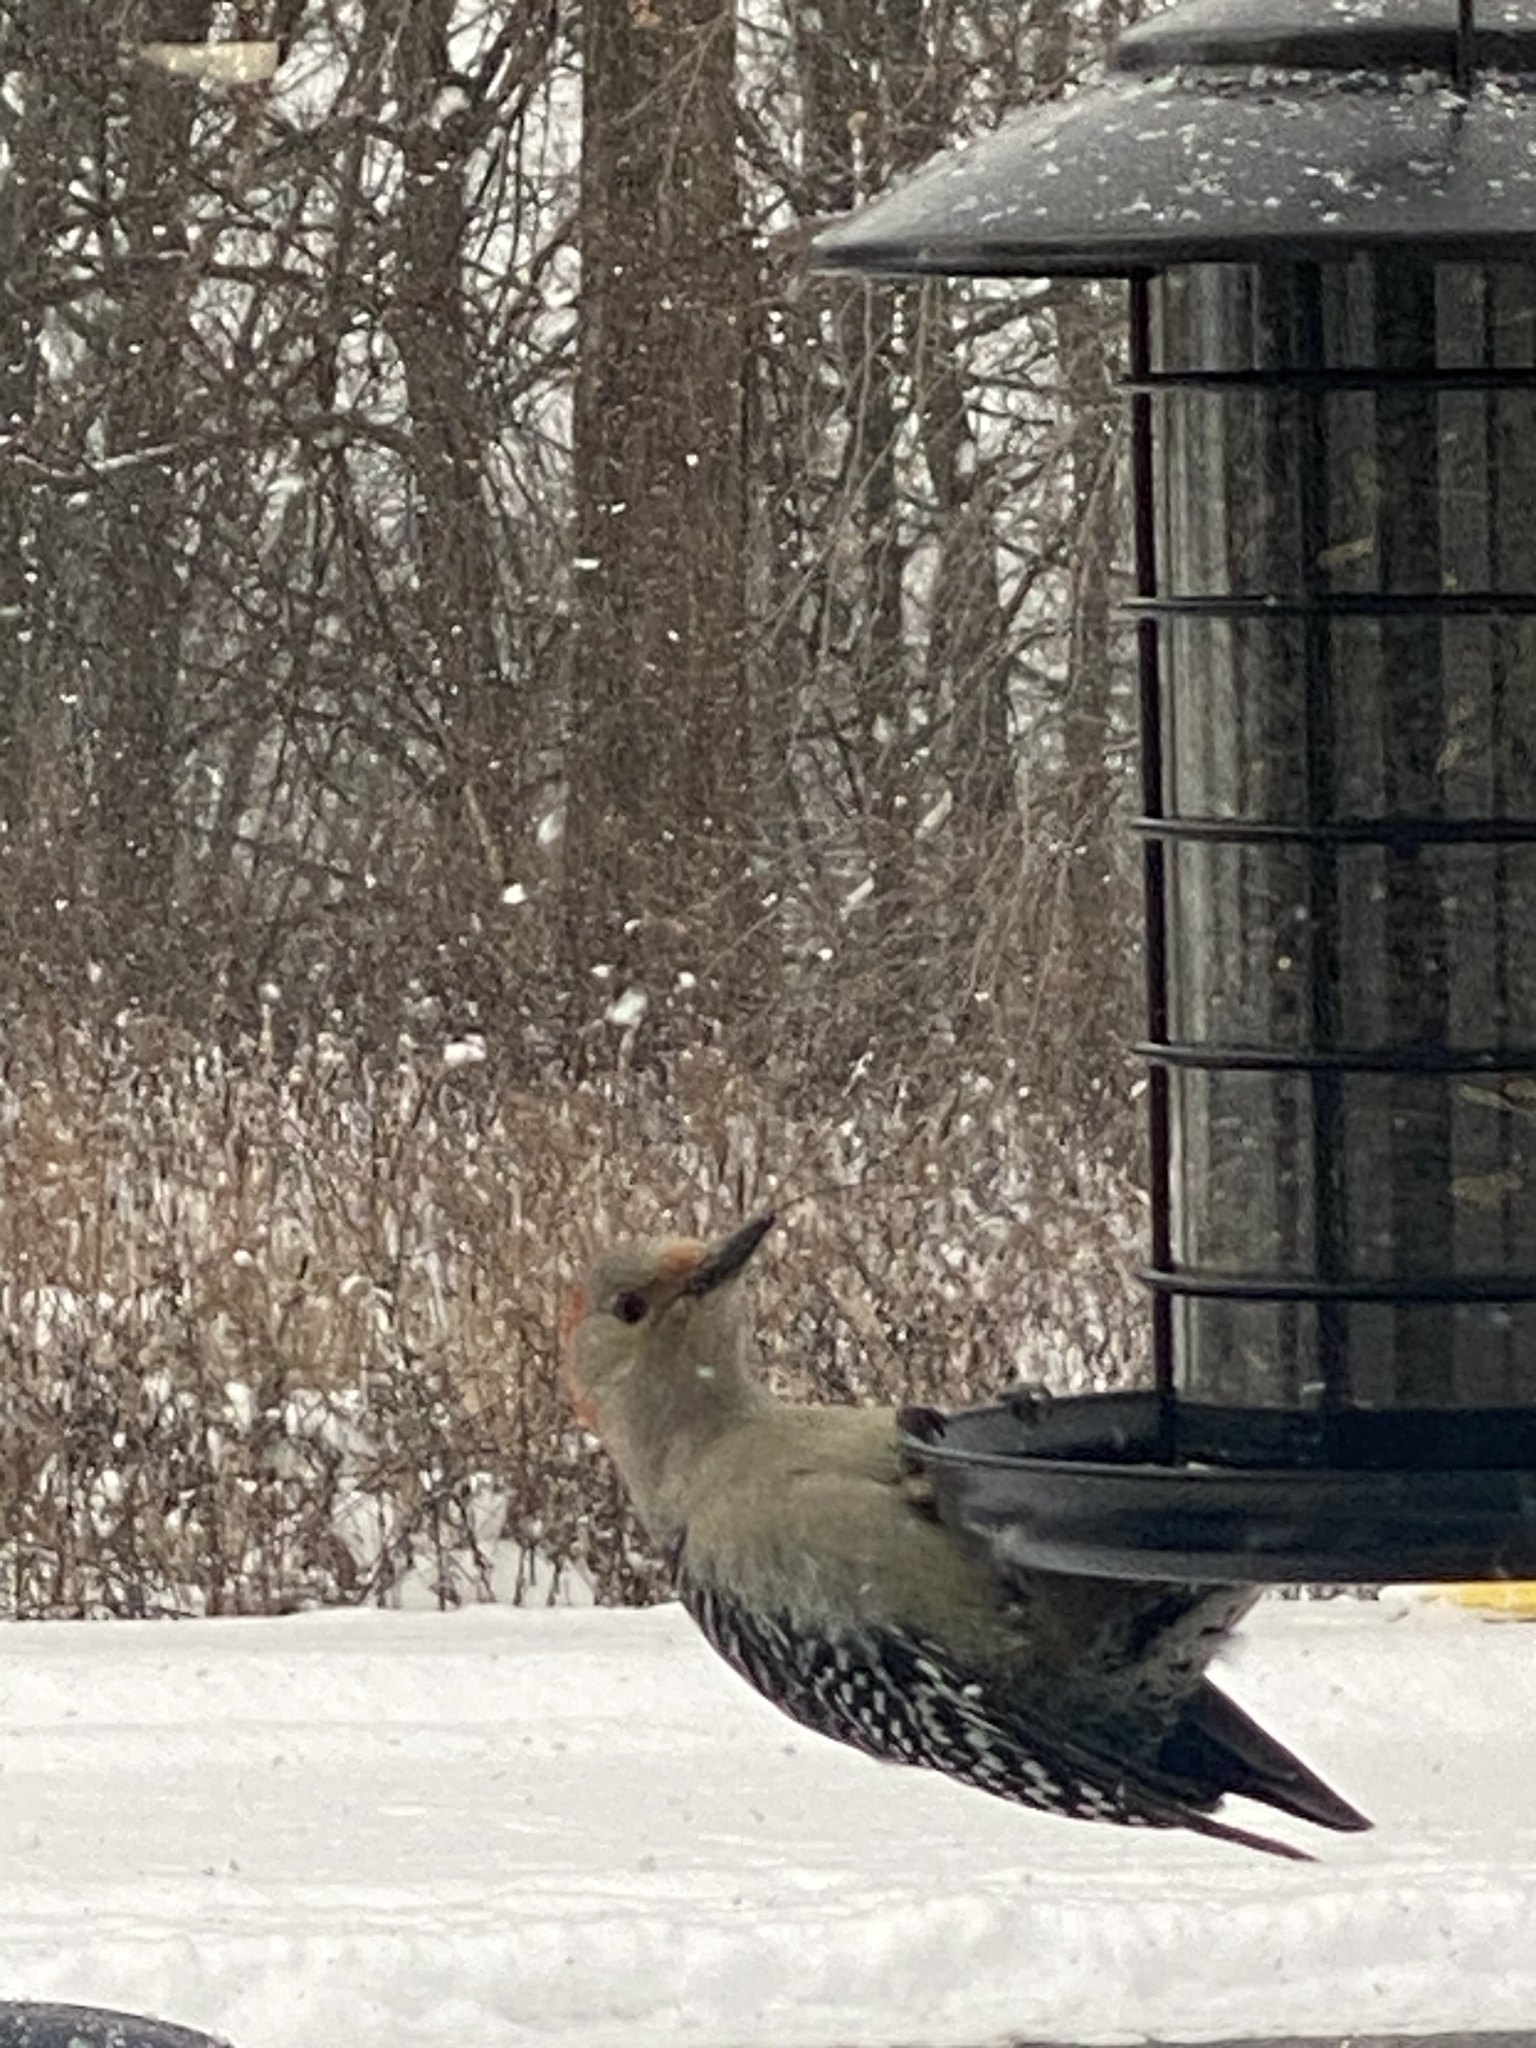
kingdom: Animalia
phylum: Chordata
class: Aves
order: Piciformes
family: Picidae
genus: Melanerpes
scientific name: Melanerpes carolinus
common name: Red-bellied woodpecker
